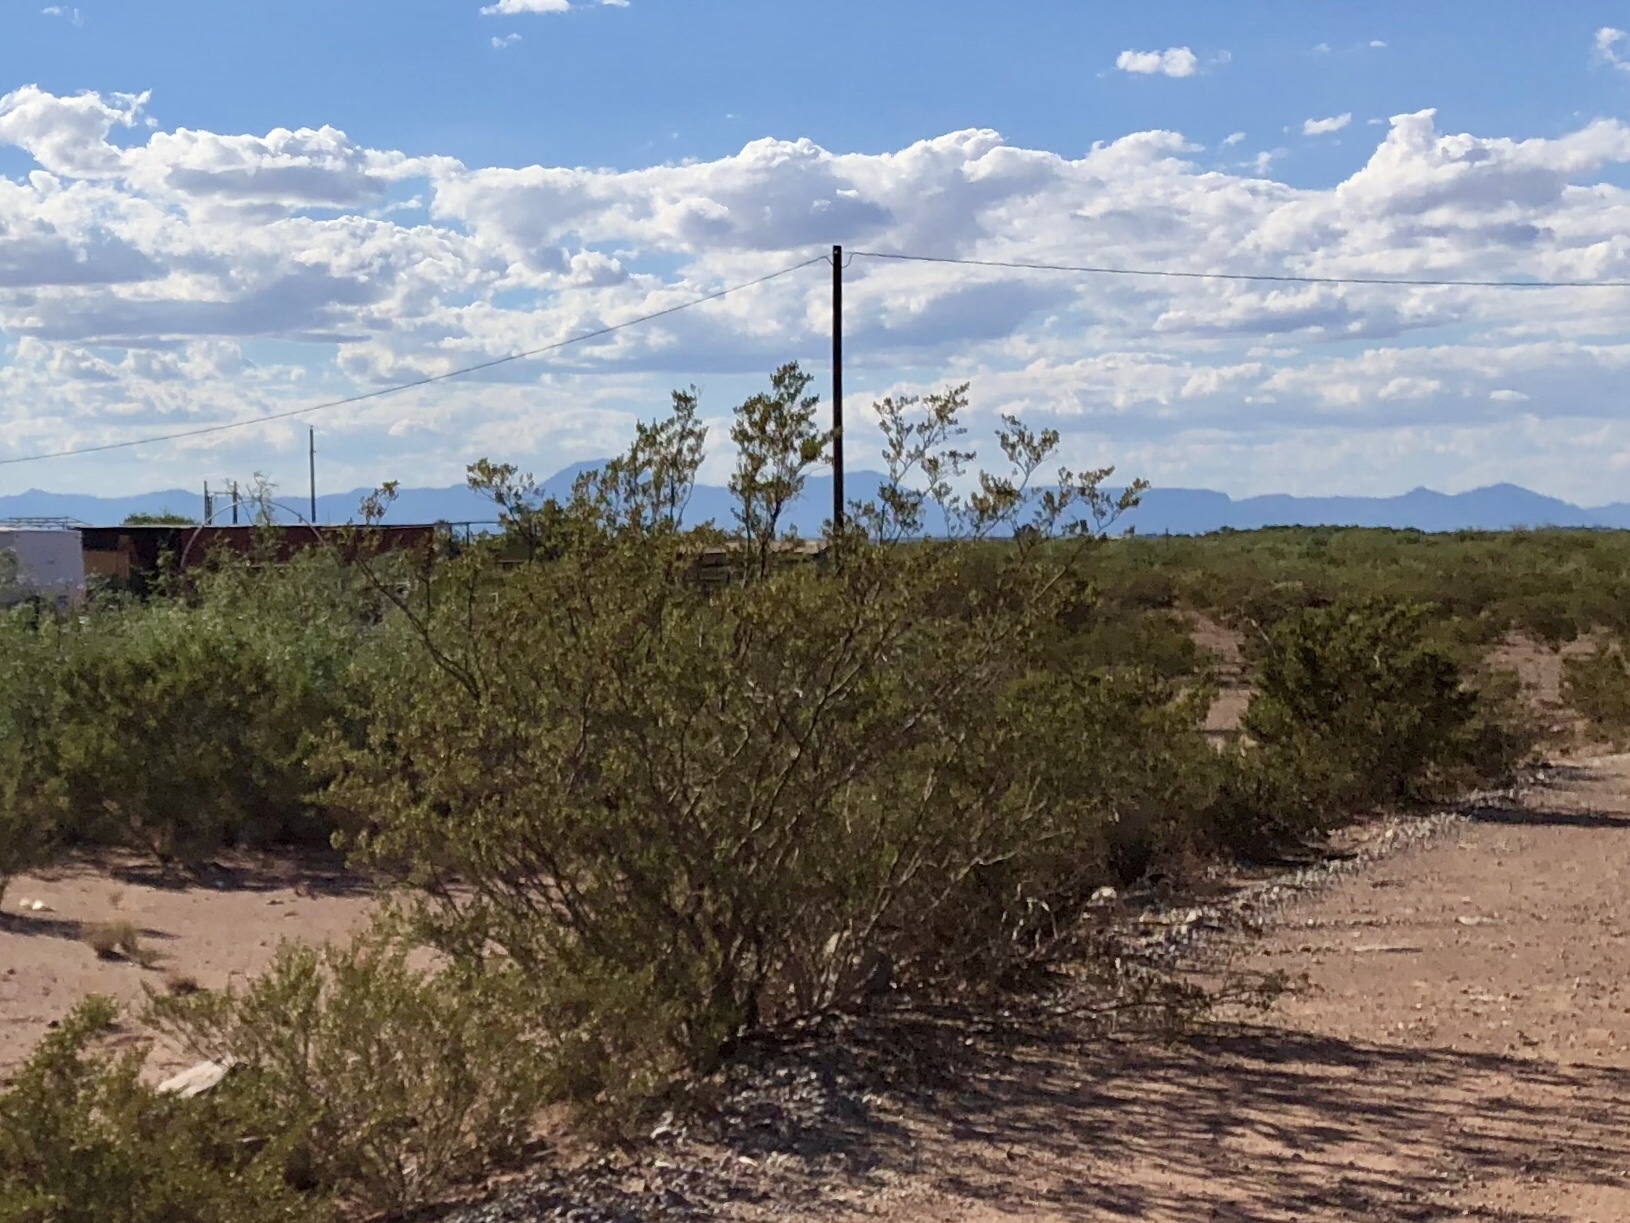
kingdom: Plantae
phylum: Tracheophyta
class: Magnoliopsida
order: Zygophyllales
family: Zygophyllaceae
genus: Larrea
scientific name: Larrea tridentata
